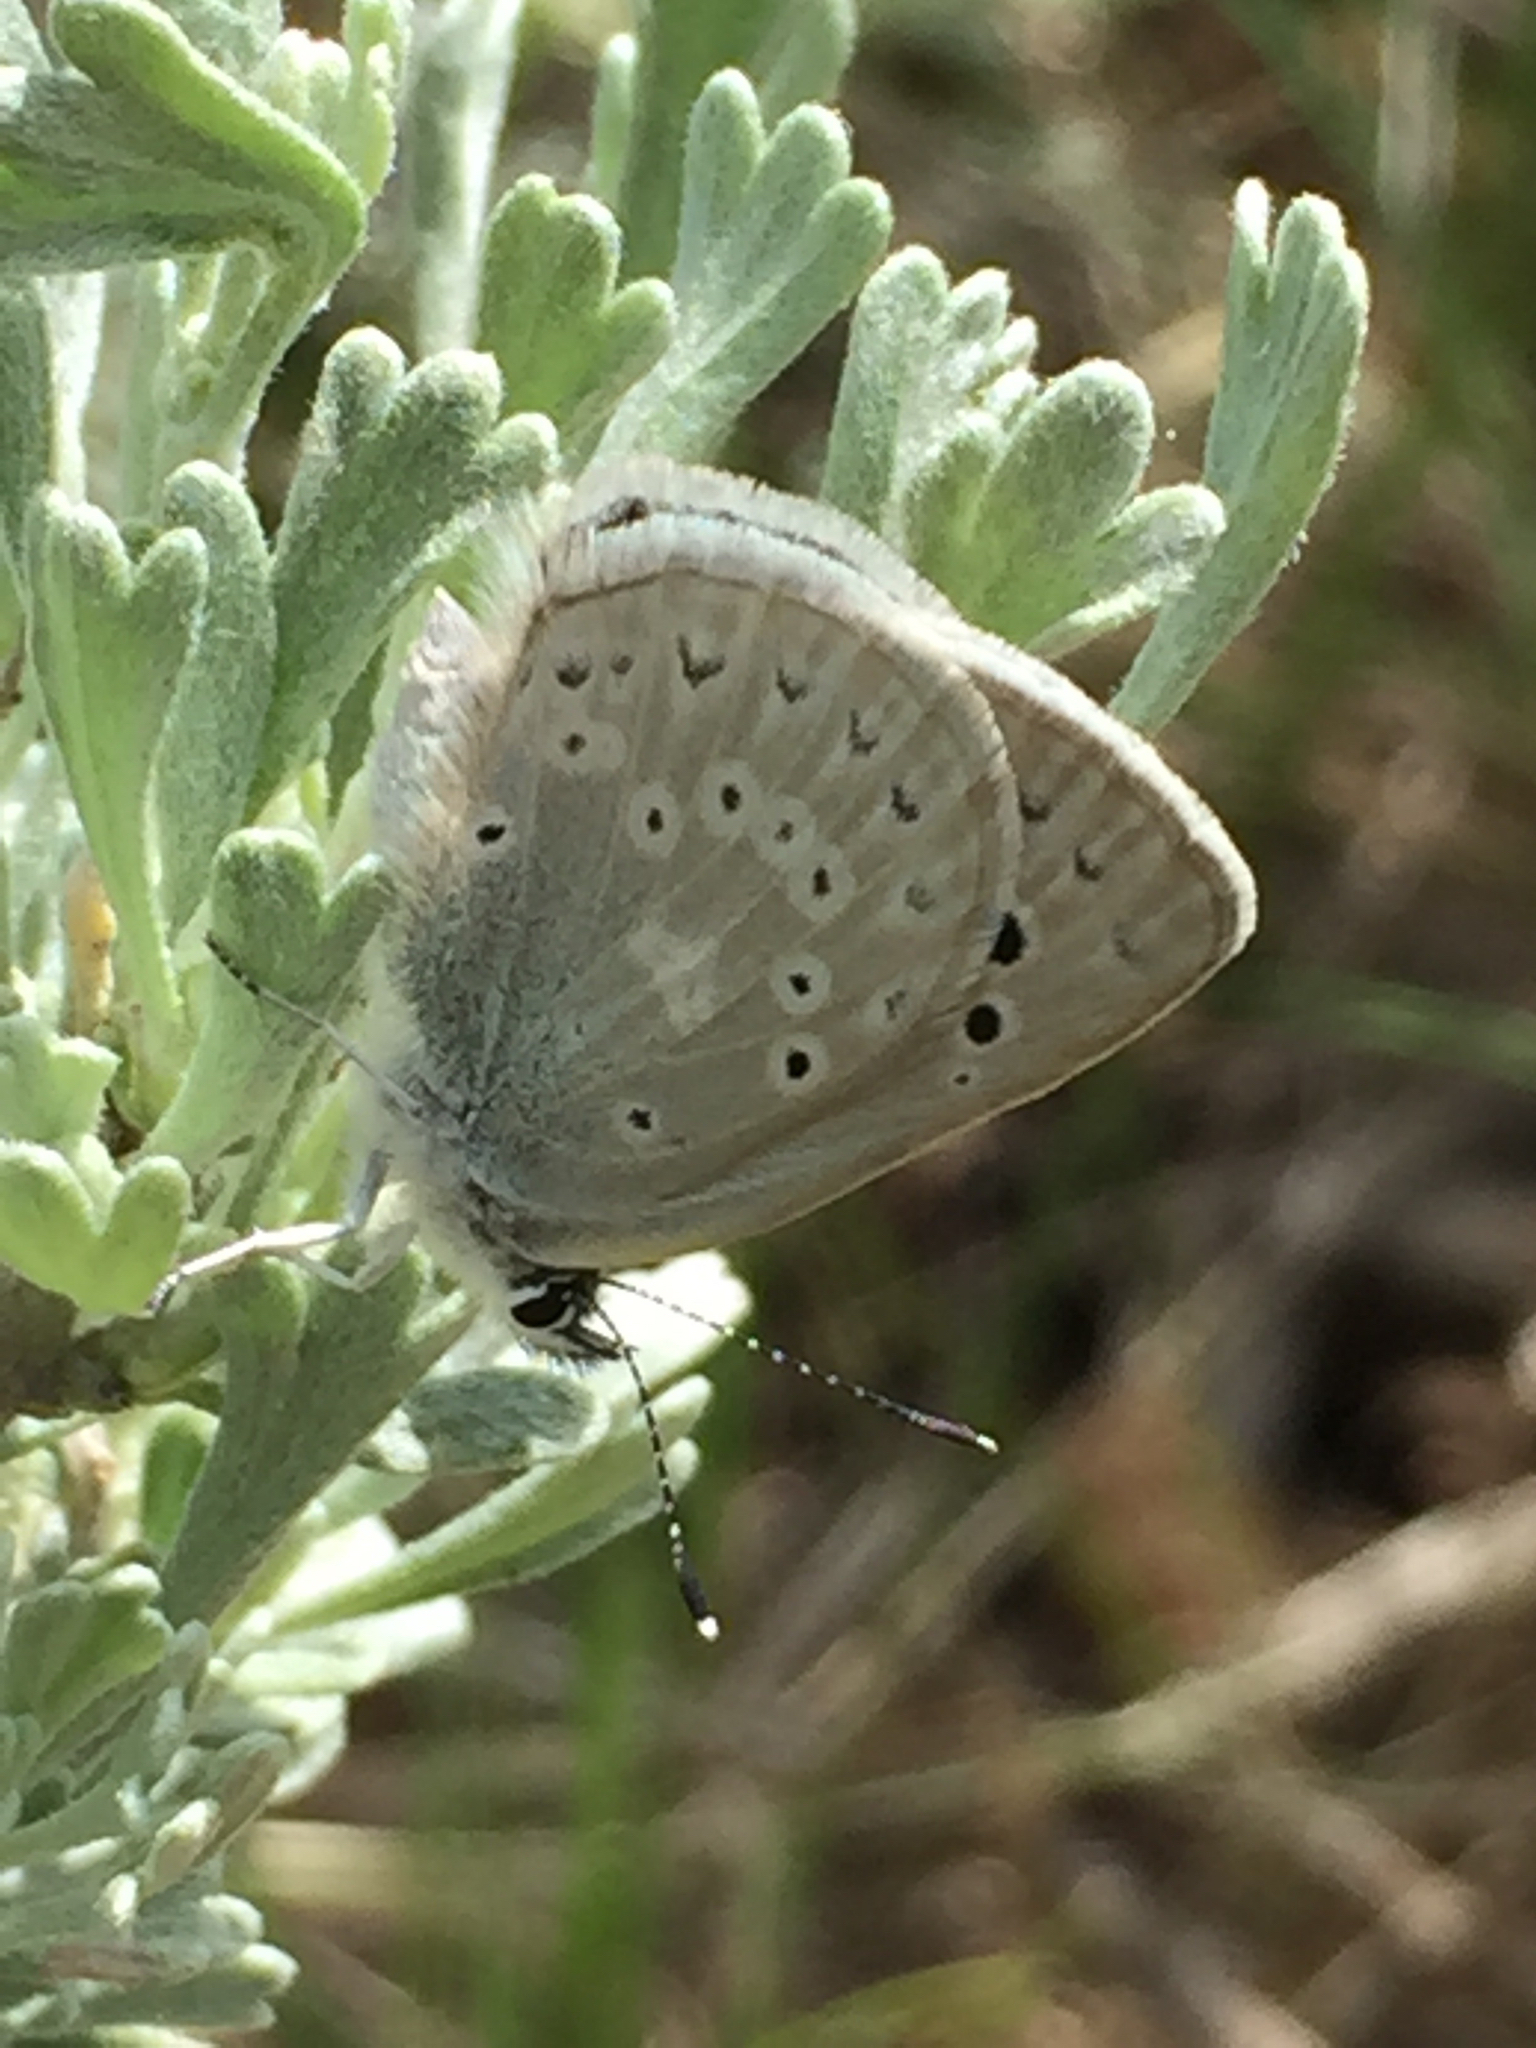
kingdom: Animalia
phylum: Arthropoda
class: Insecta
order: Lepidoptera
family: Lycaenidae
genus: Icaricia
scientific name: Icaricia icarioides
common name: Boisduval's blue
